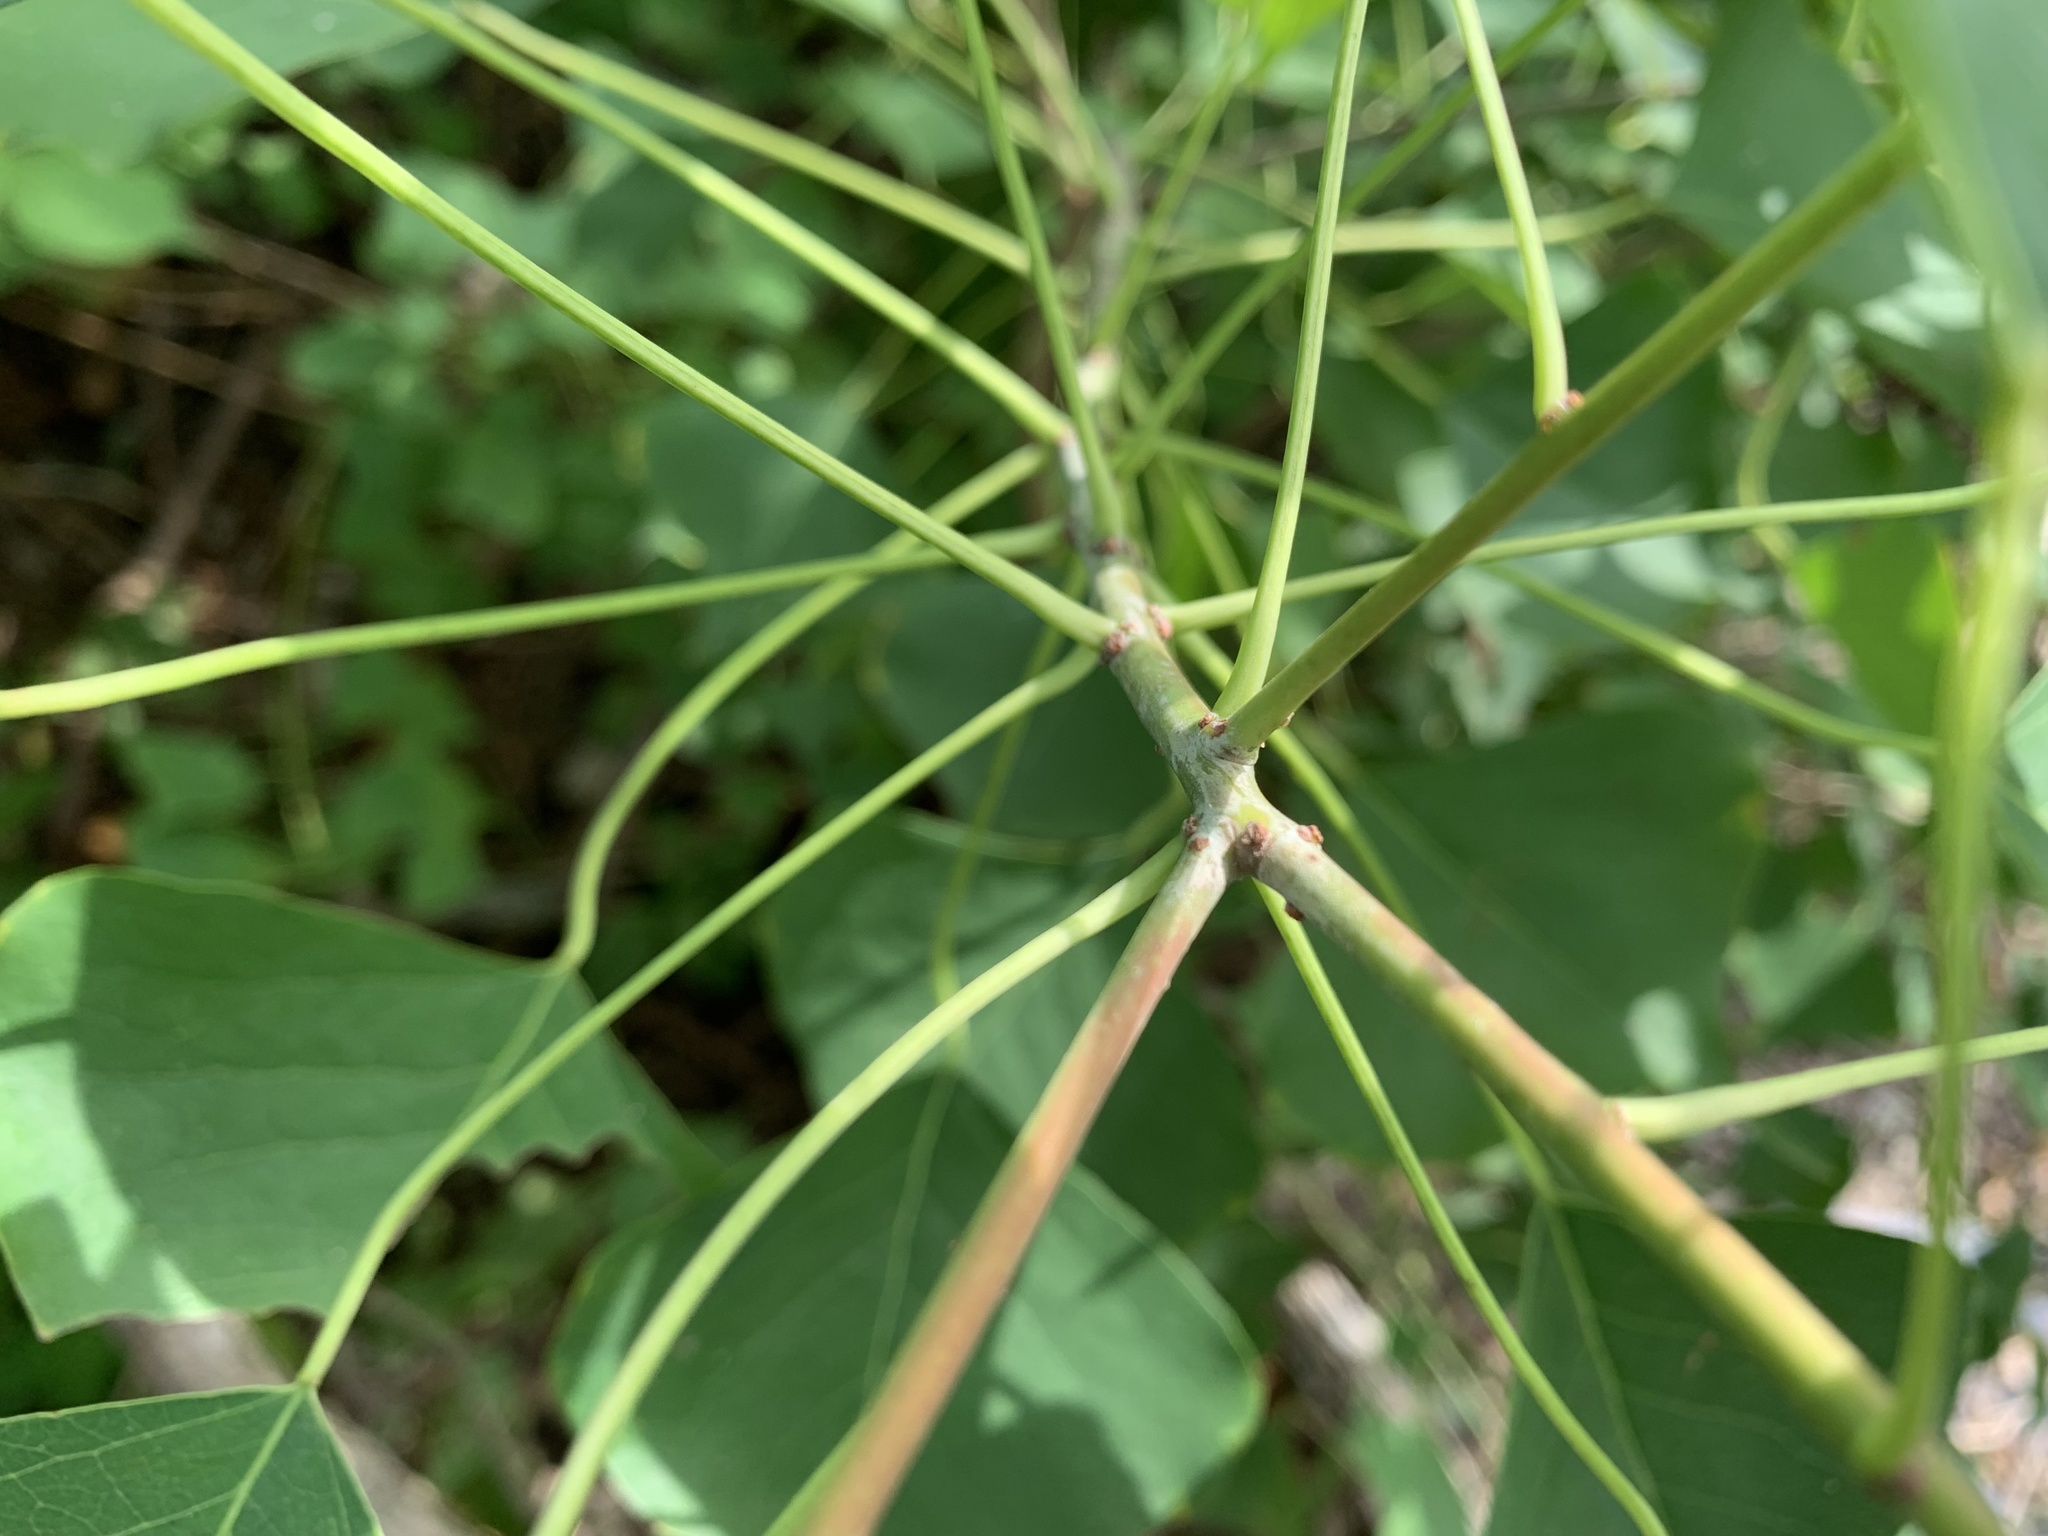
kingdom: Plantae
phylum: Tracheophyta
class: Magnoliopsida
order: Malpighiales
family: Euphorbiaceae
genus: Triadica
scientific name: Triadica sebifera
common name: Chinese tallow
